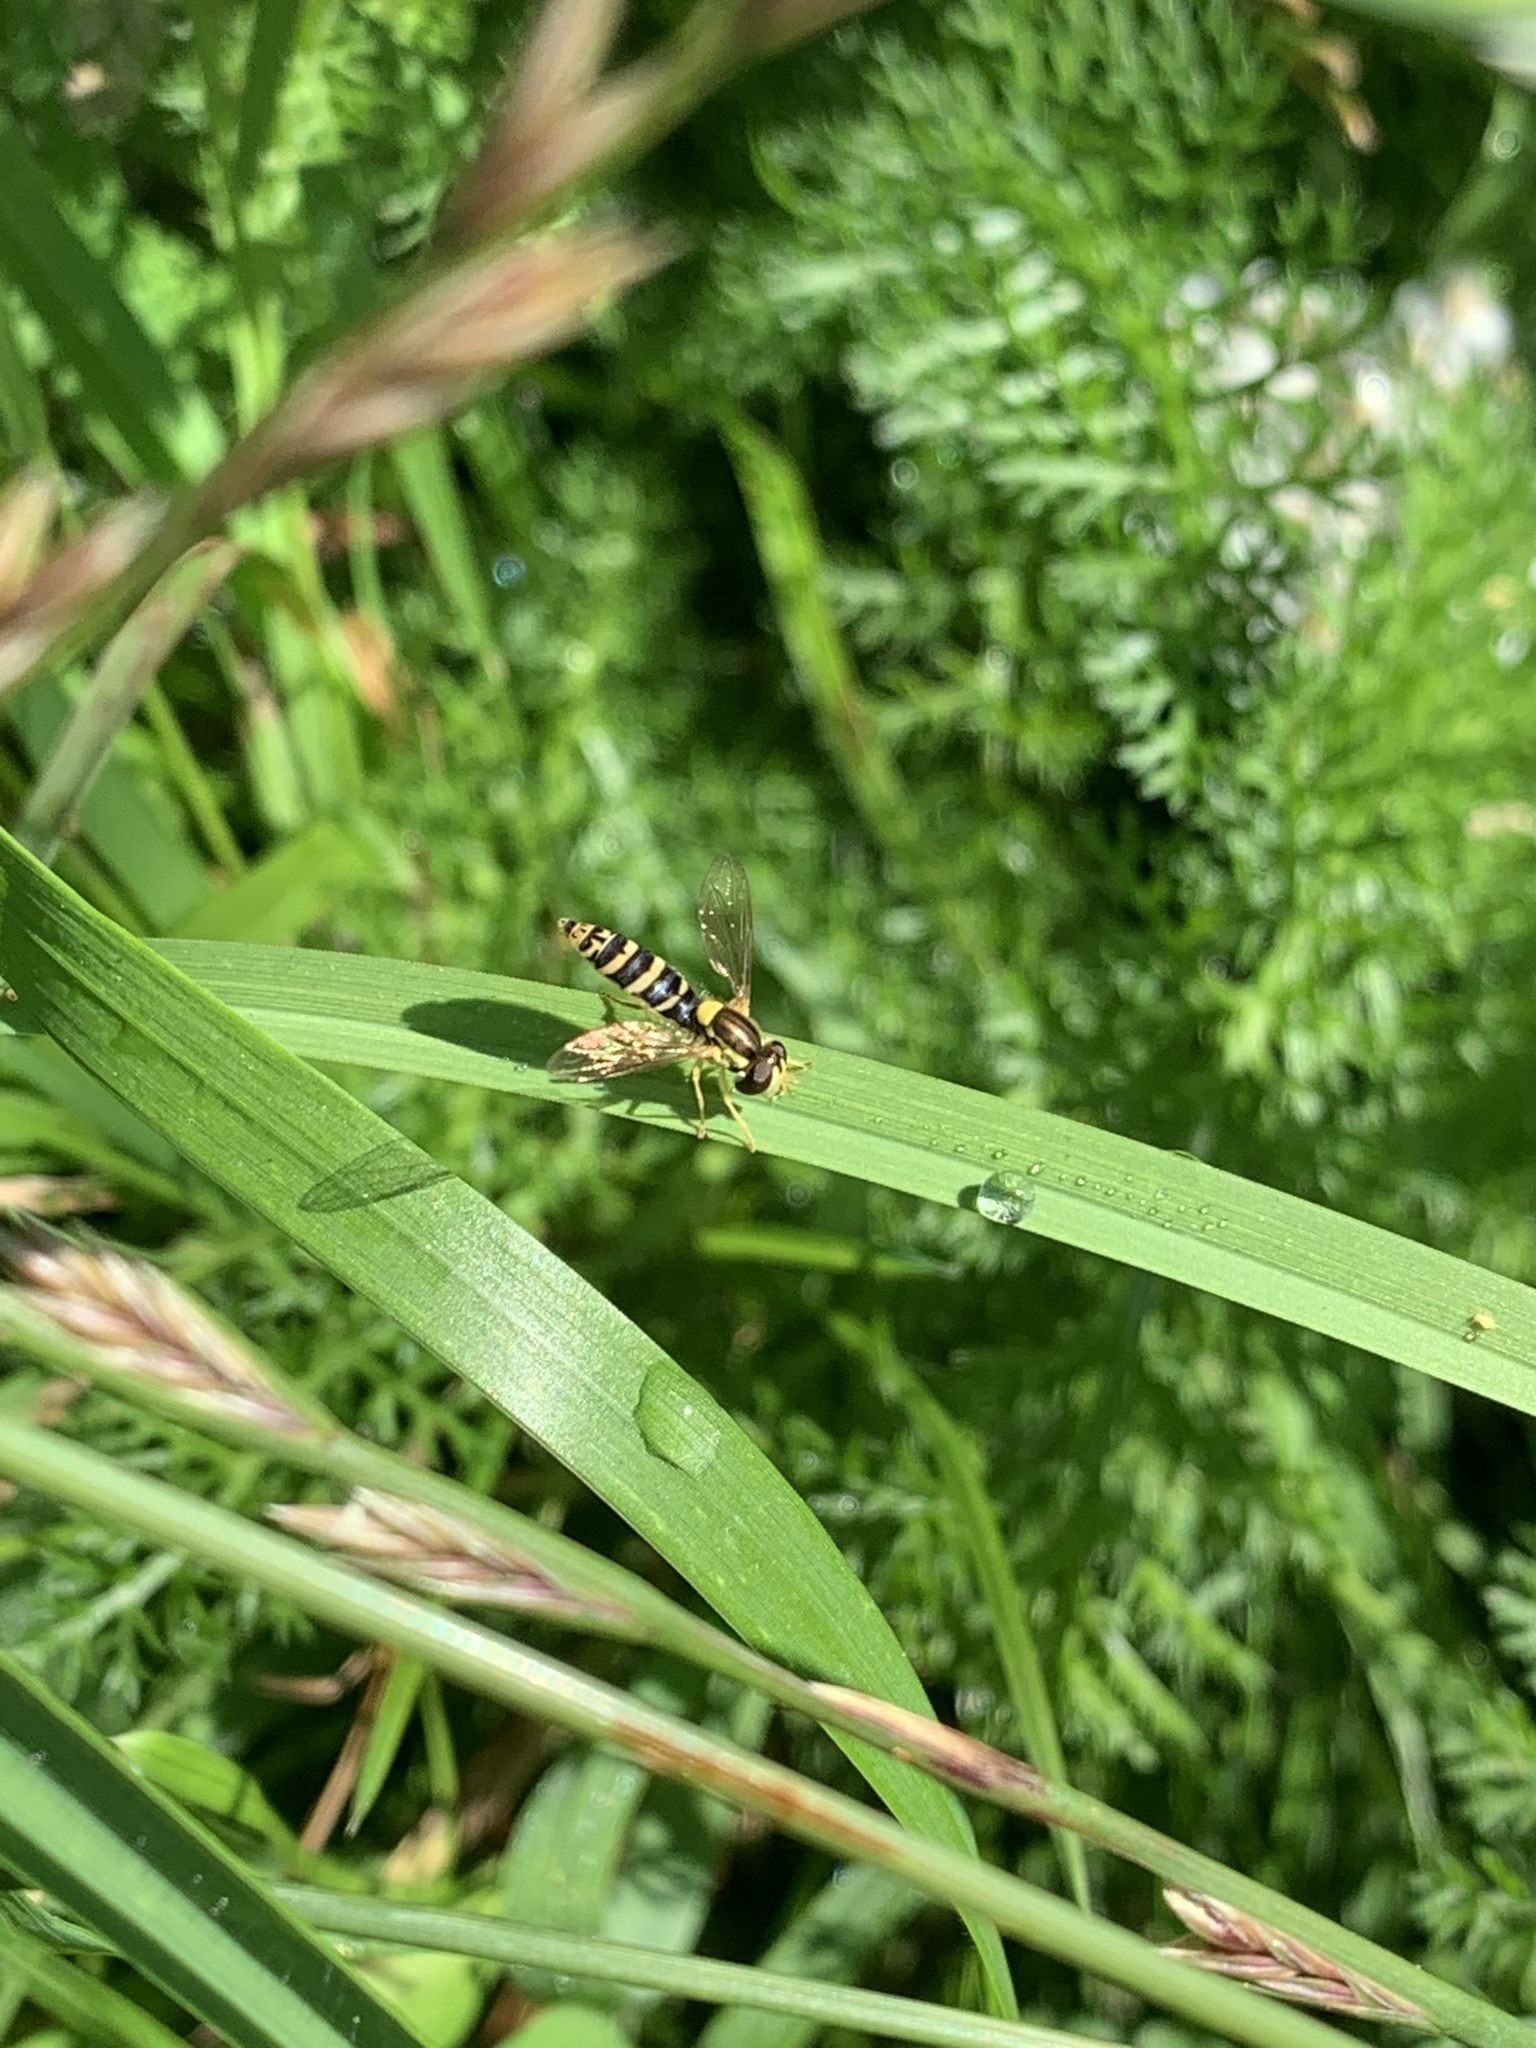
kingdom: Animalia
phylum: Arthropoda
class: Insecta
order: Diptera
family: Syrphidae
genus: Sphaerophoria
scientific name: Sphaerophoria
